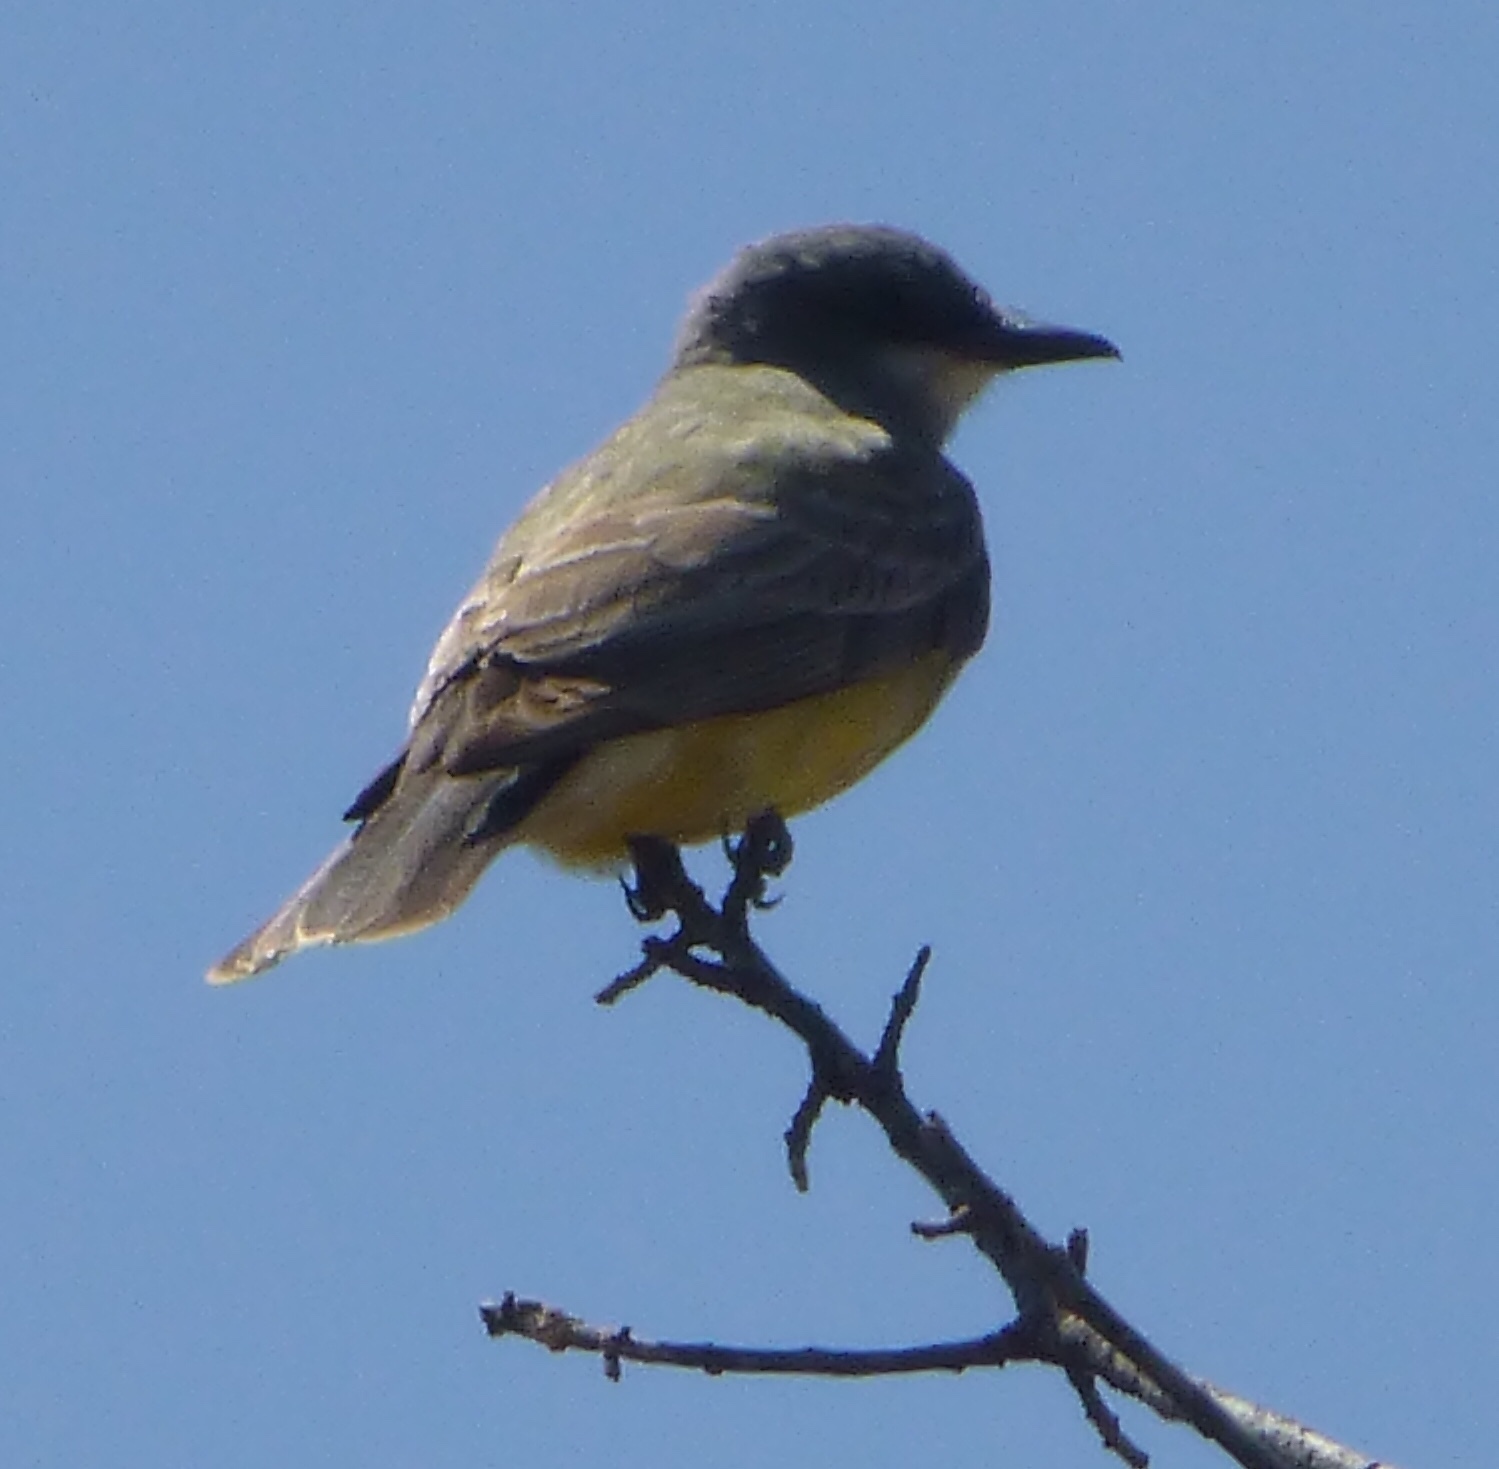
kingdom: Animalia
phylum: Chordata
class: Aves
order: Passeriformes
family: Tyrannidae
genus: Tyrannus
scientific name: Tyrannus vociferans
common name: Cassin's kingbird
